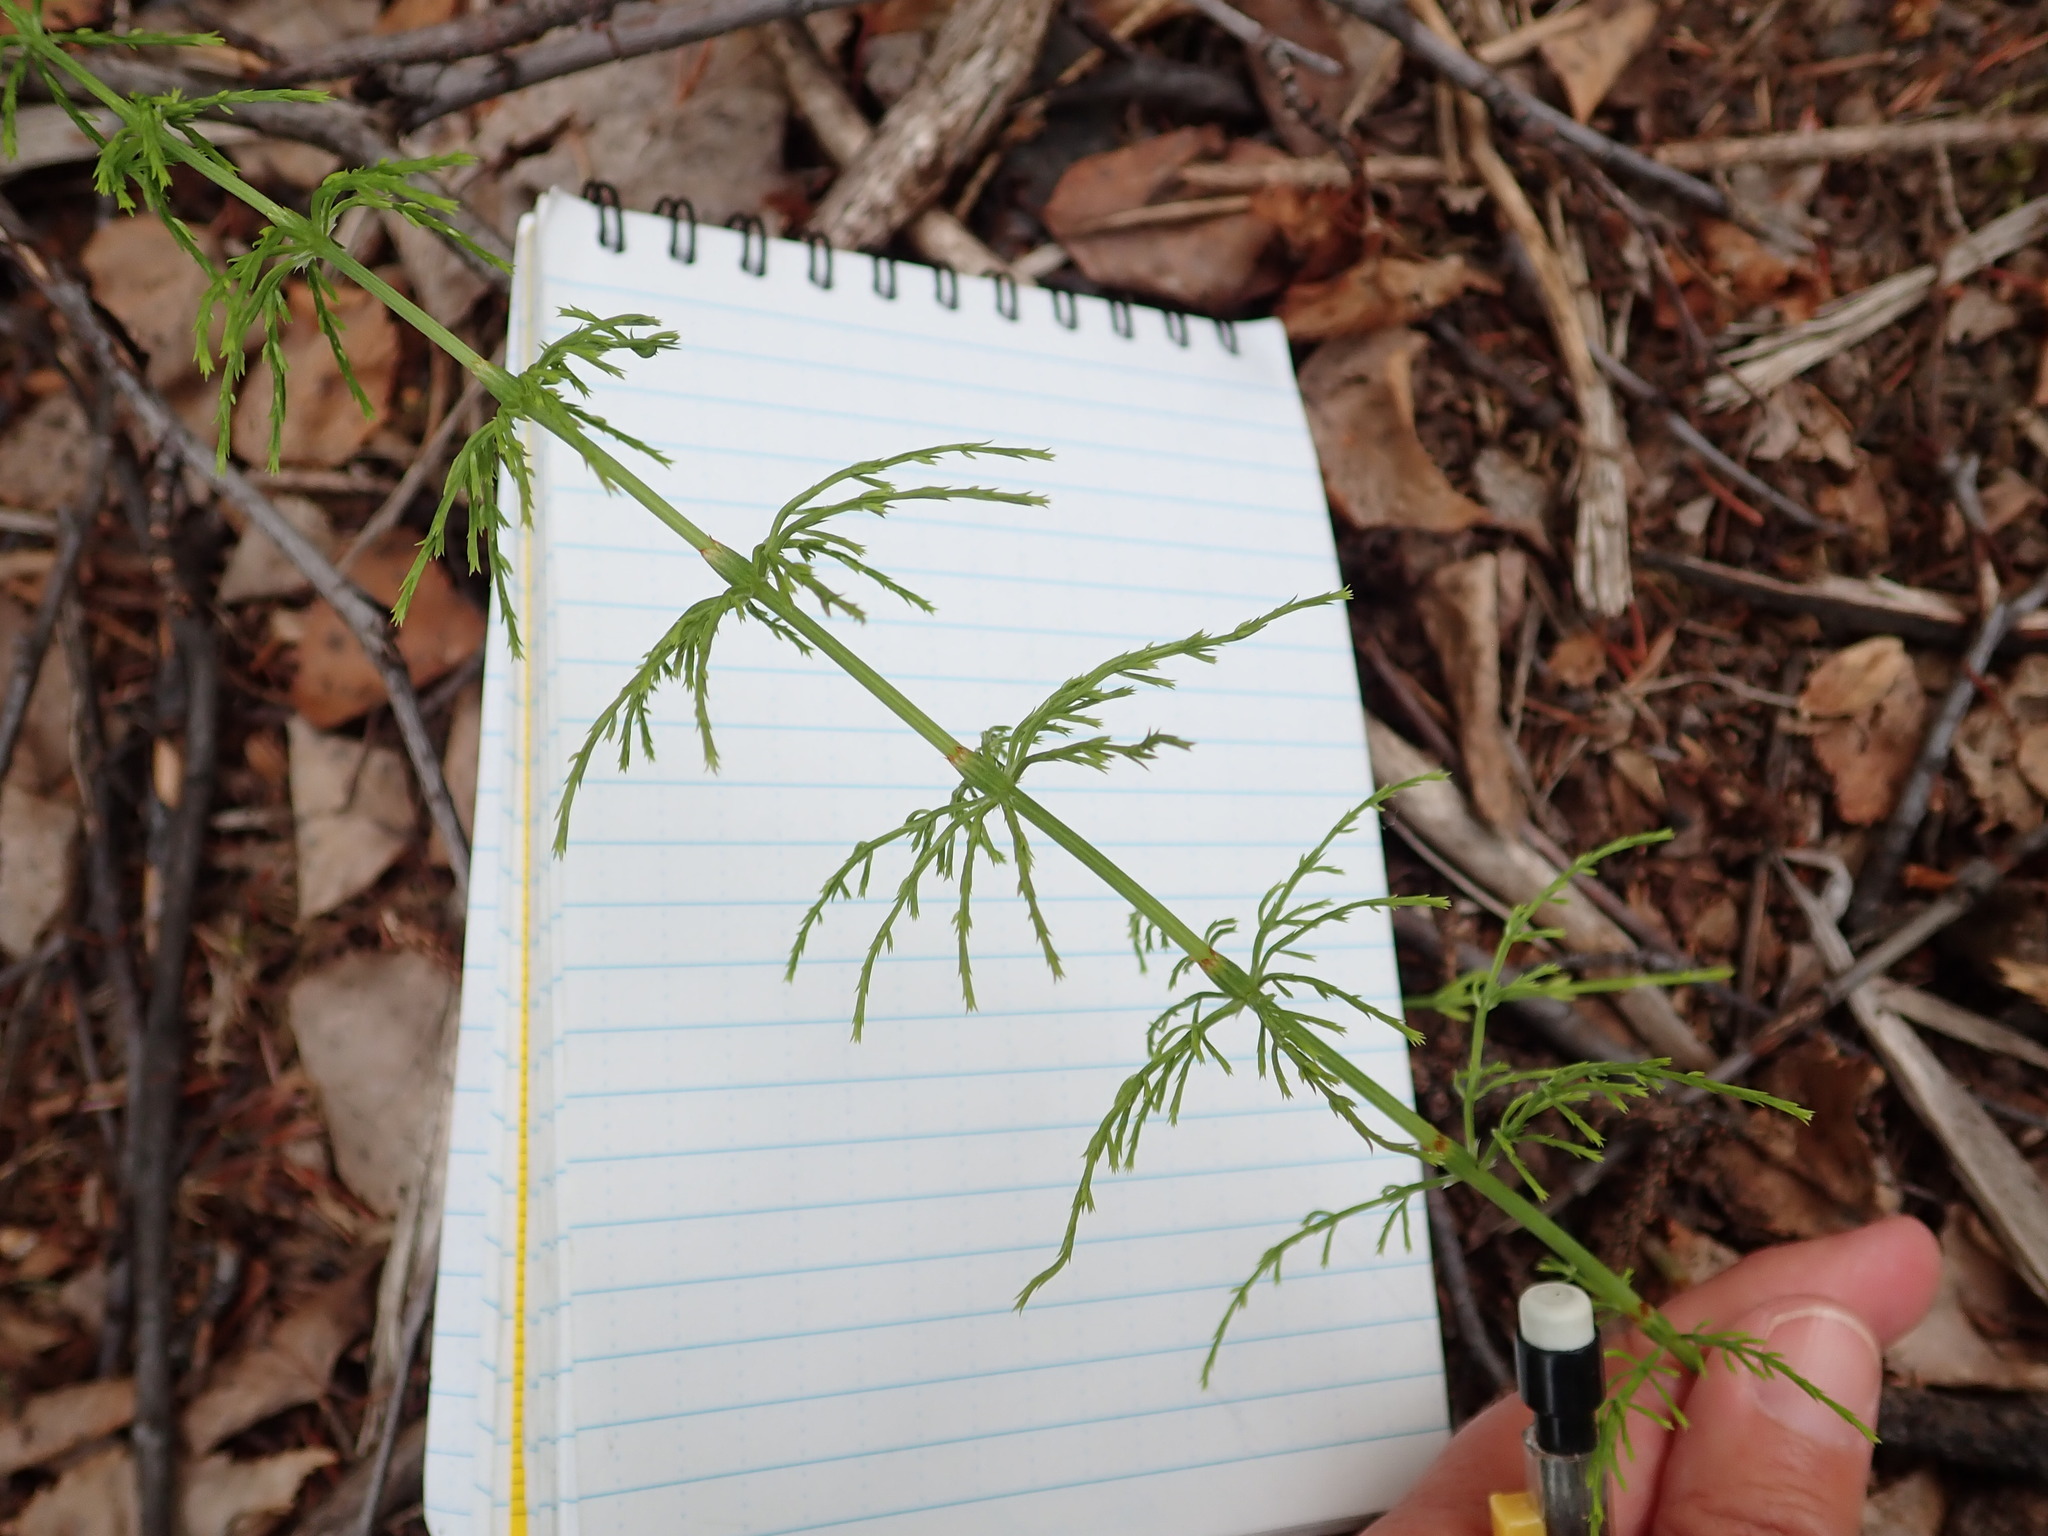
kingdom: Plantae
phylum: Tracheophyta
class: Polypodiopsida
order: Equisetales
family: Equisetaceae
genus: Equisetum
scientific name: Equisetum sylvaticum
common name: Wood horsetail
